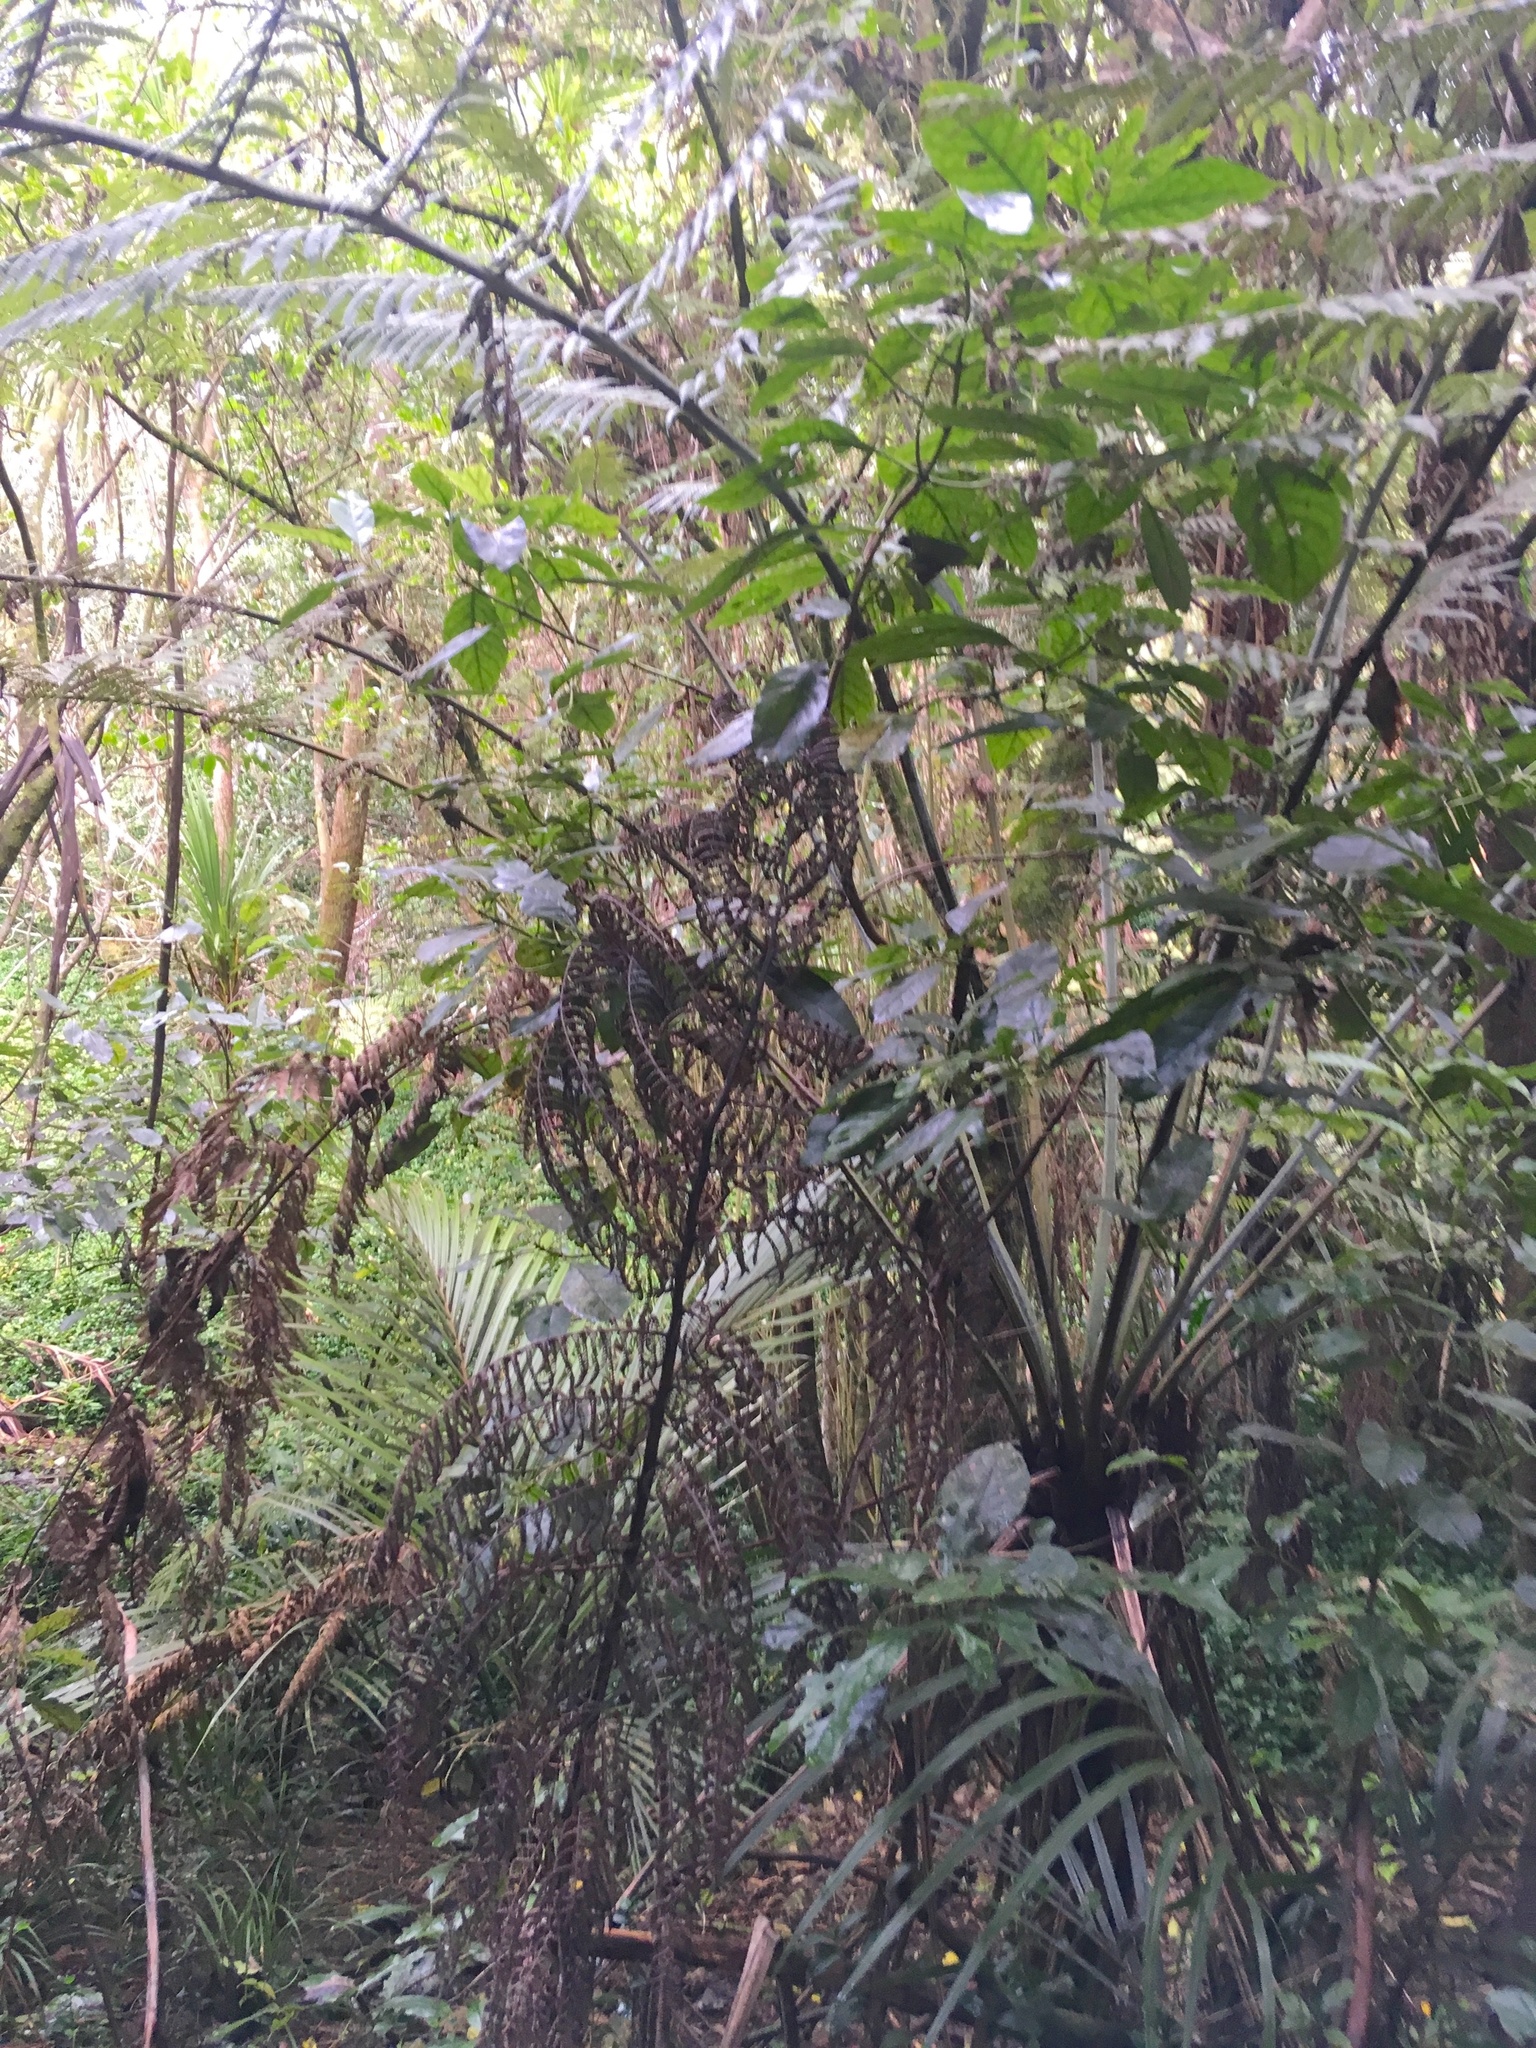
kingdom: Plantae
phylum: Tracheophyta
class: Magnoliopsida
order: Gentianales
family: Rubiaceae
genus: Coprosma
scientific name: Coprosma autumnalis
